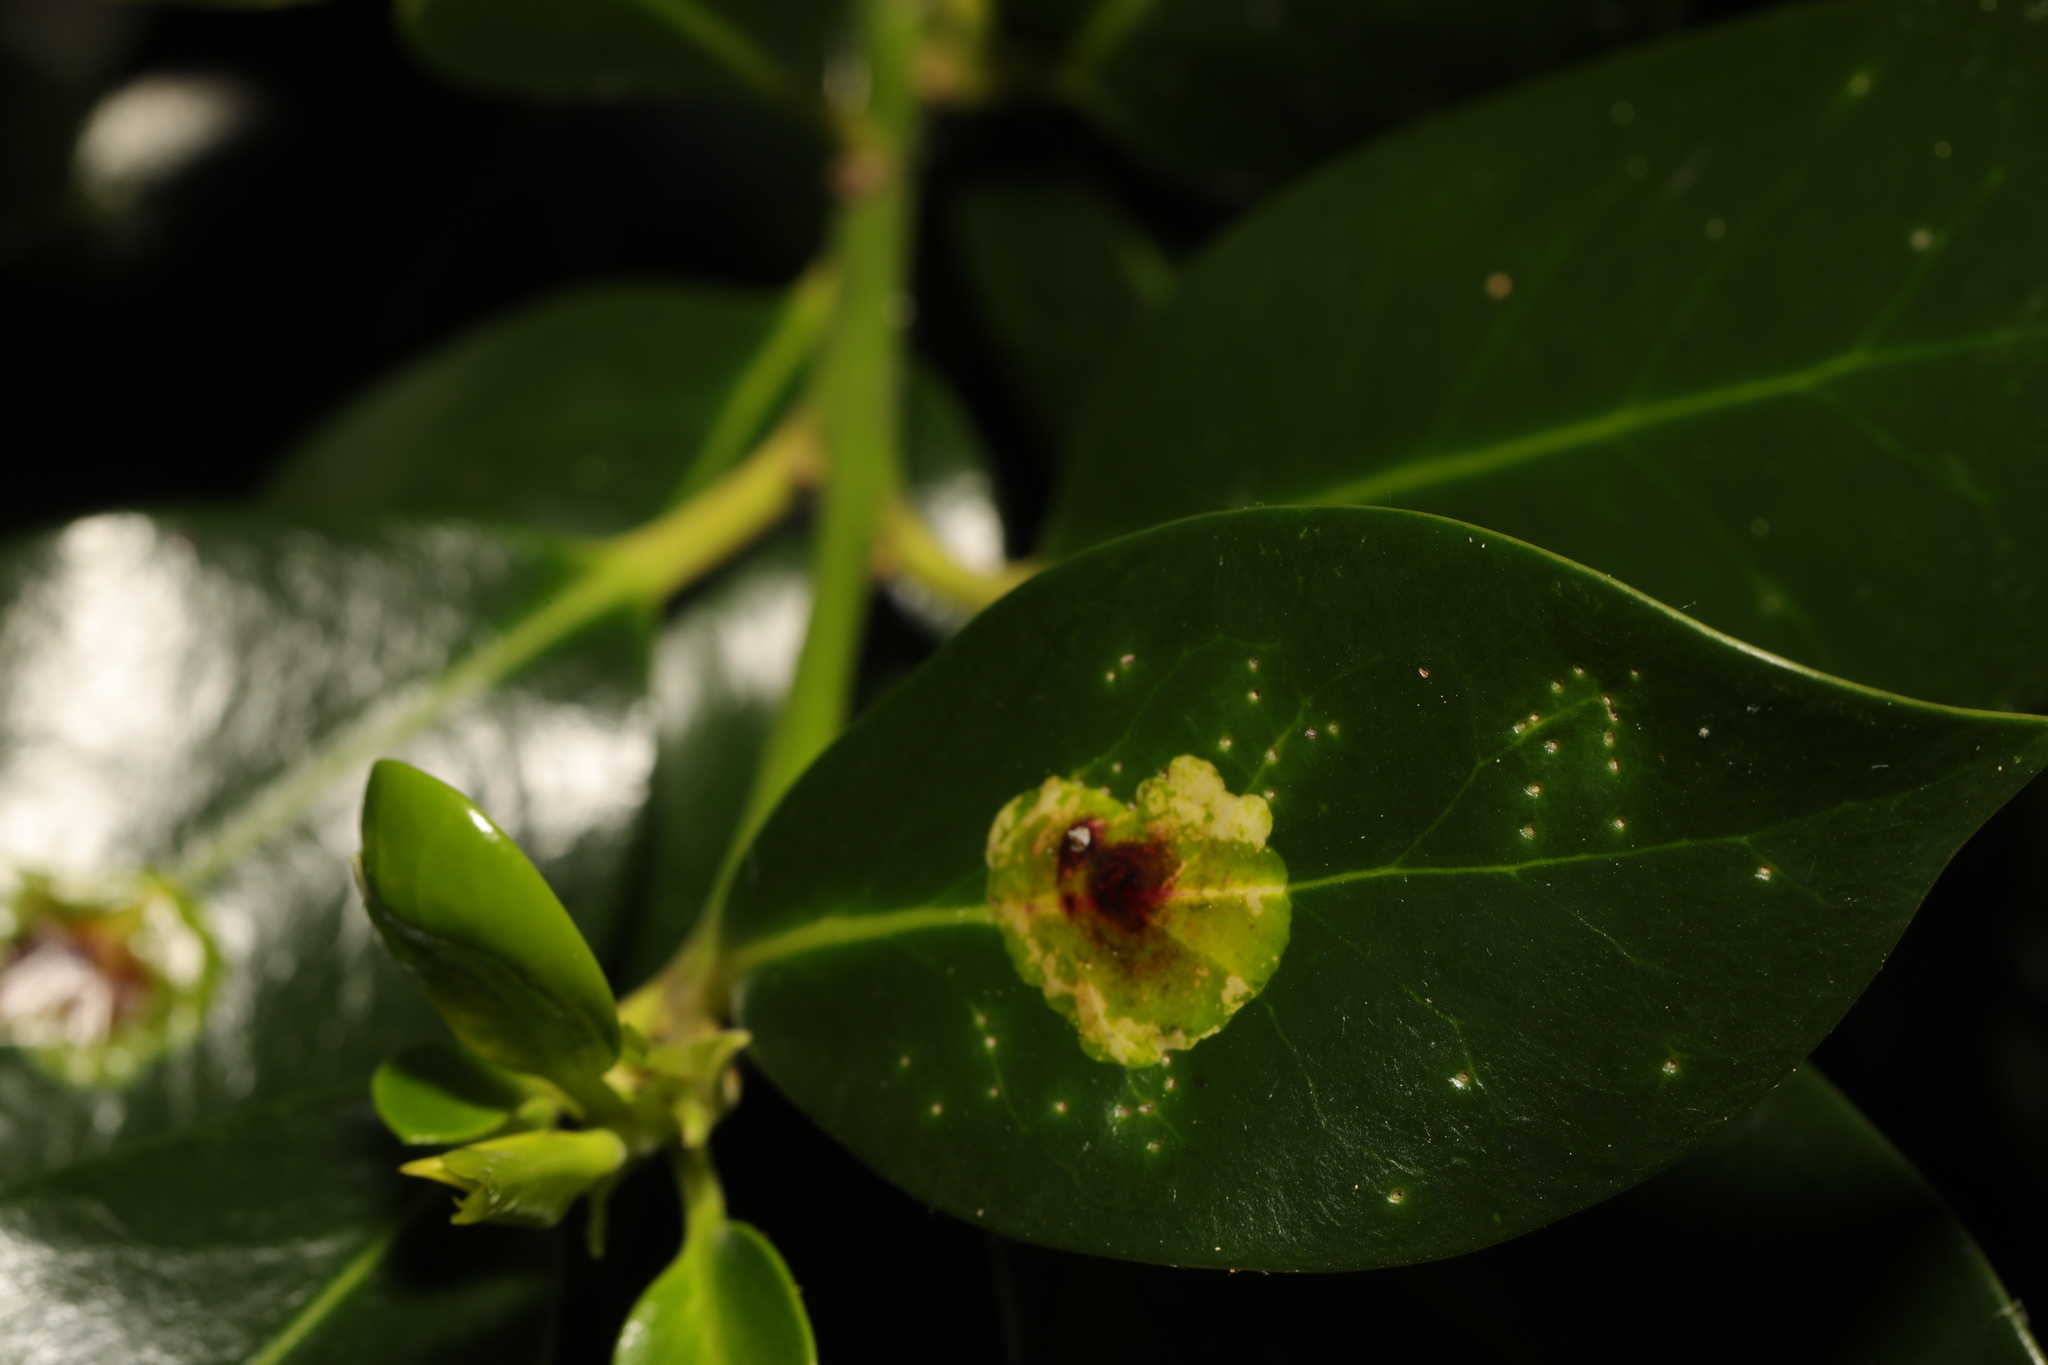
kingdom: Animalia
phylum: Arthropoda
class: Insecta
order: Diptera
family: Agromyzidae
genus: Phytomyza
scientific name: Phytomyza ilicis
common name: Holly leafminer
